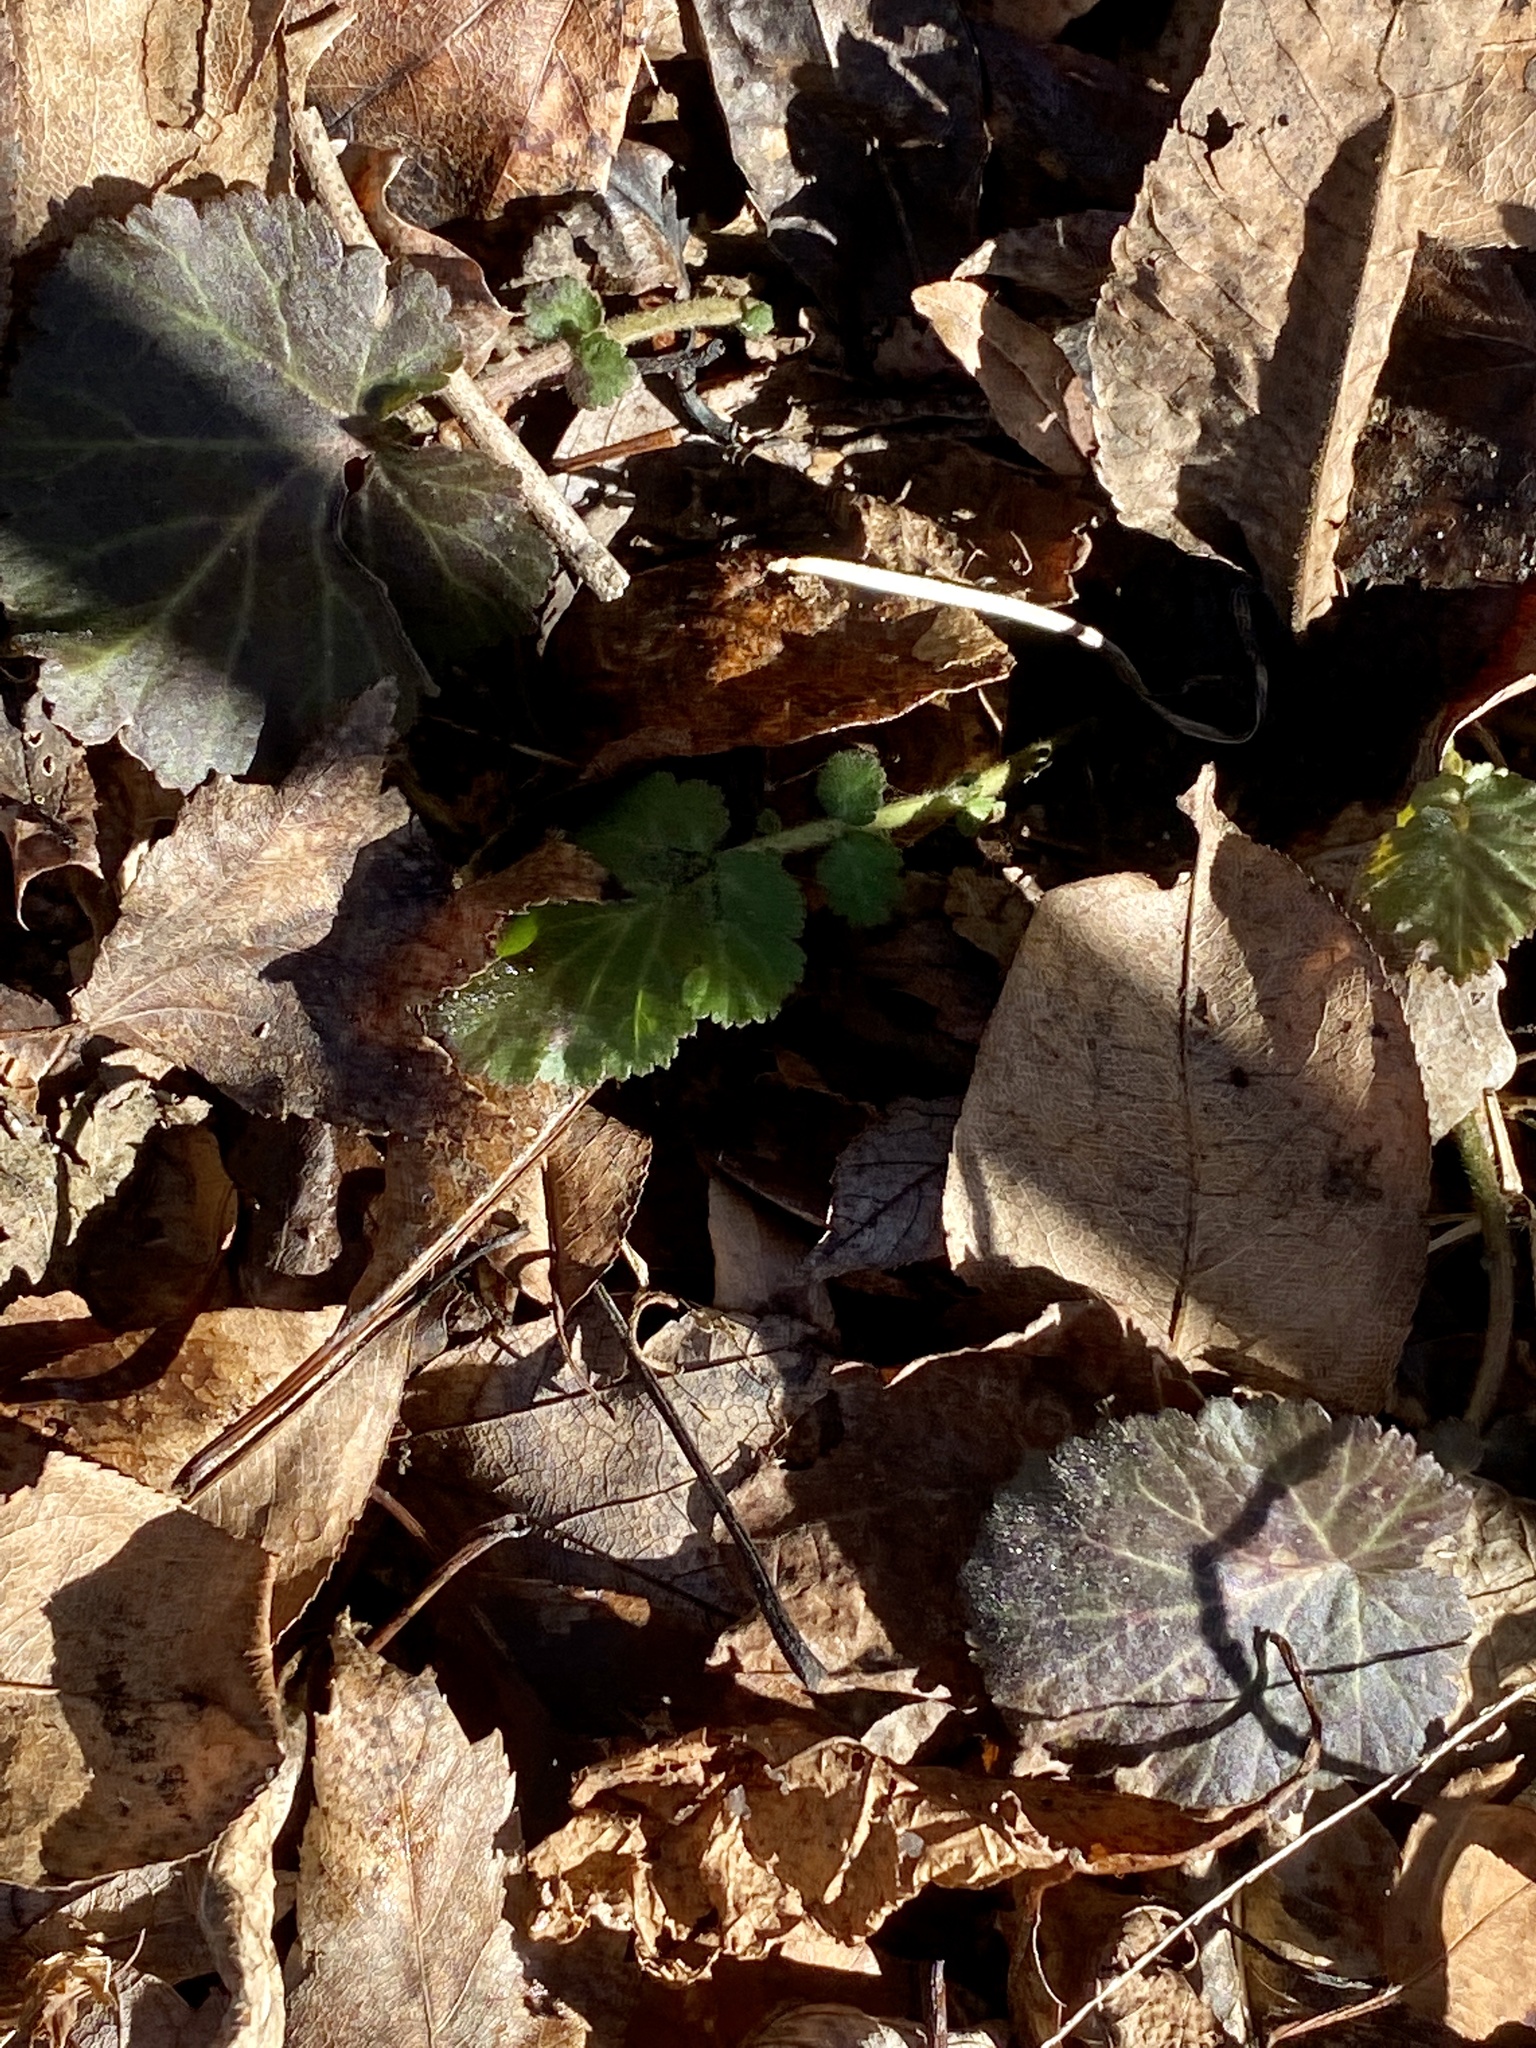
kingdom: Plantae
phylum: Tracheophyta
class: Magnoliopsida
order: Rosales
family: Rosaceae
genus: Geum
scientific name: Geum canadense
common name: White avens
